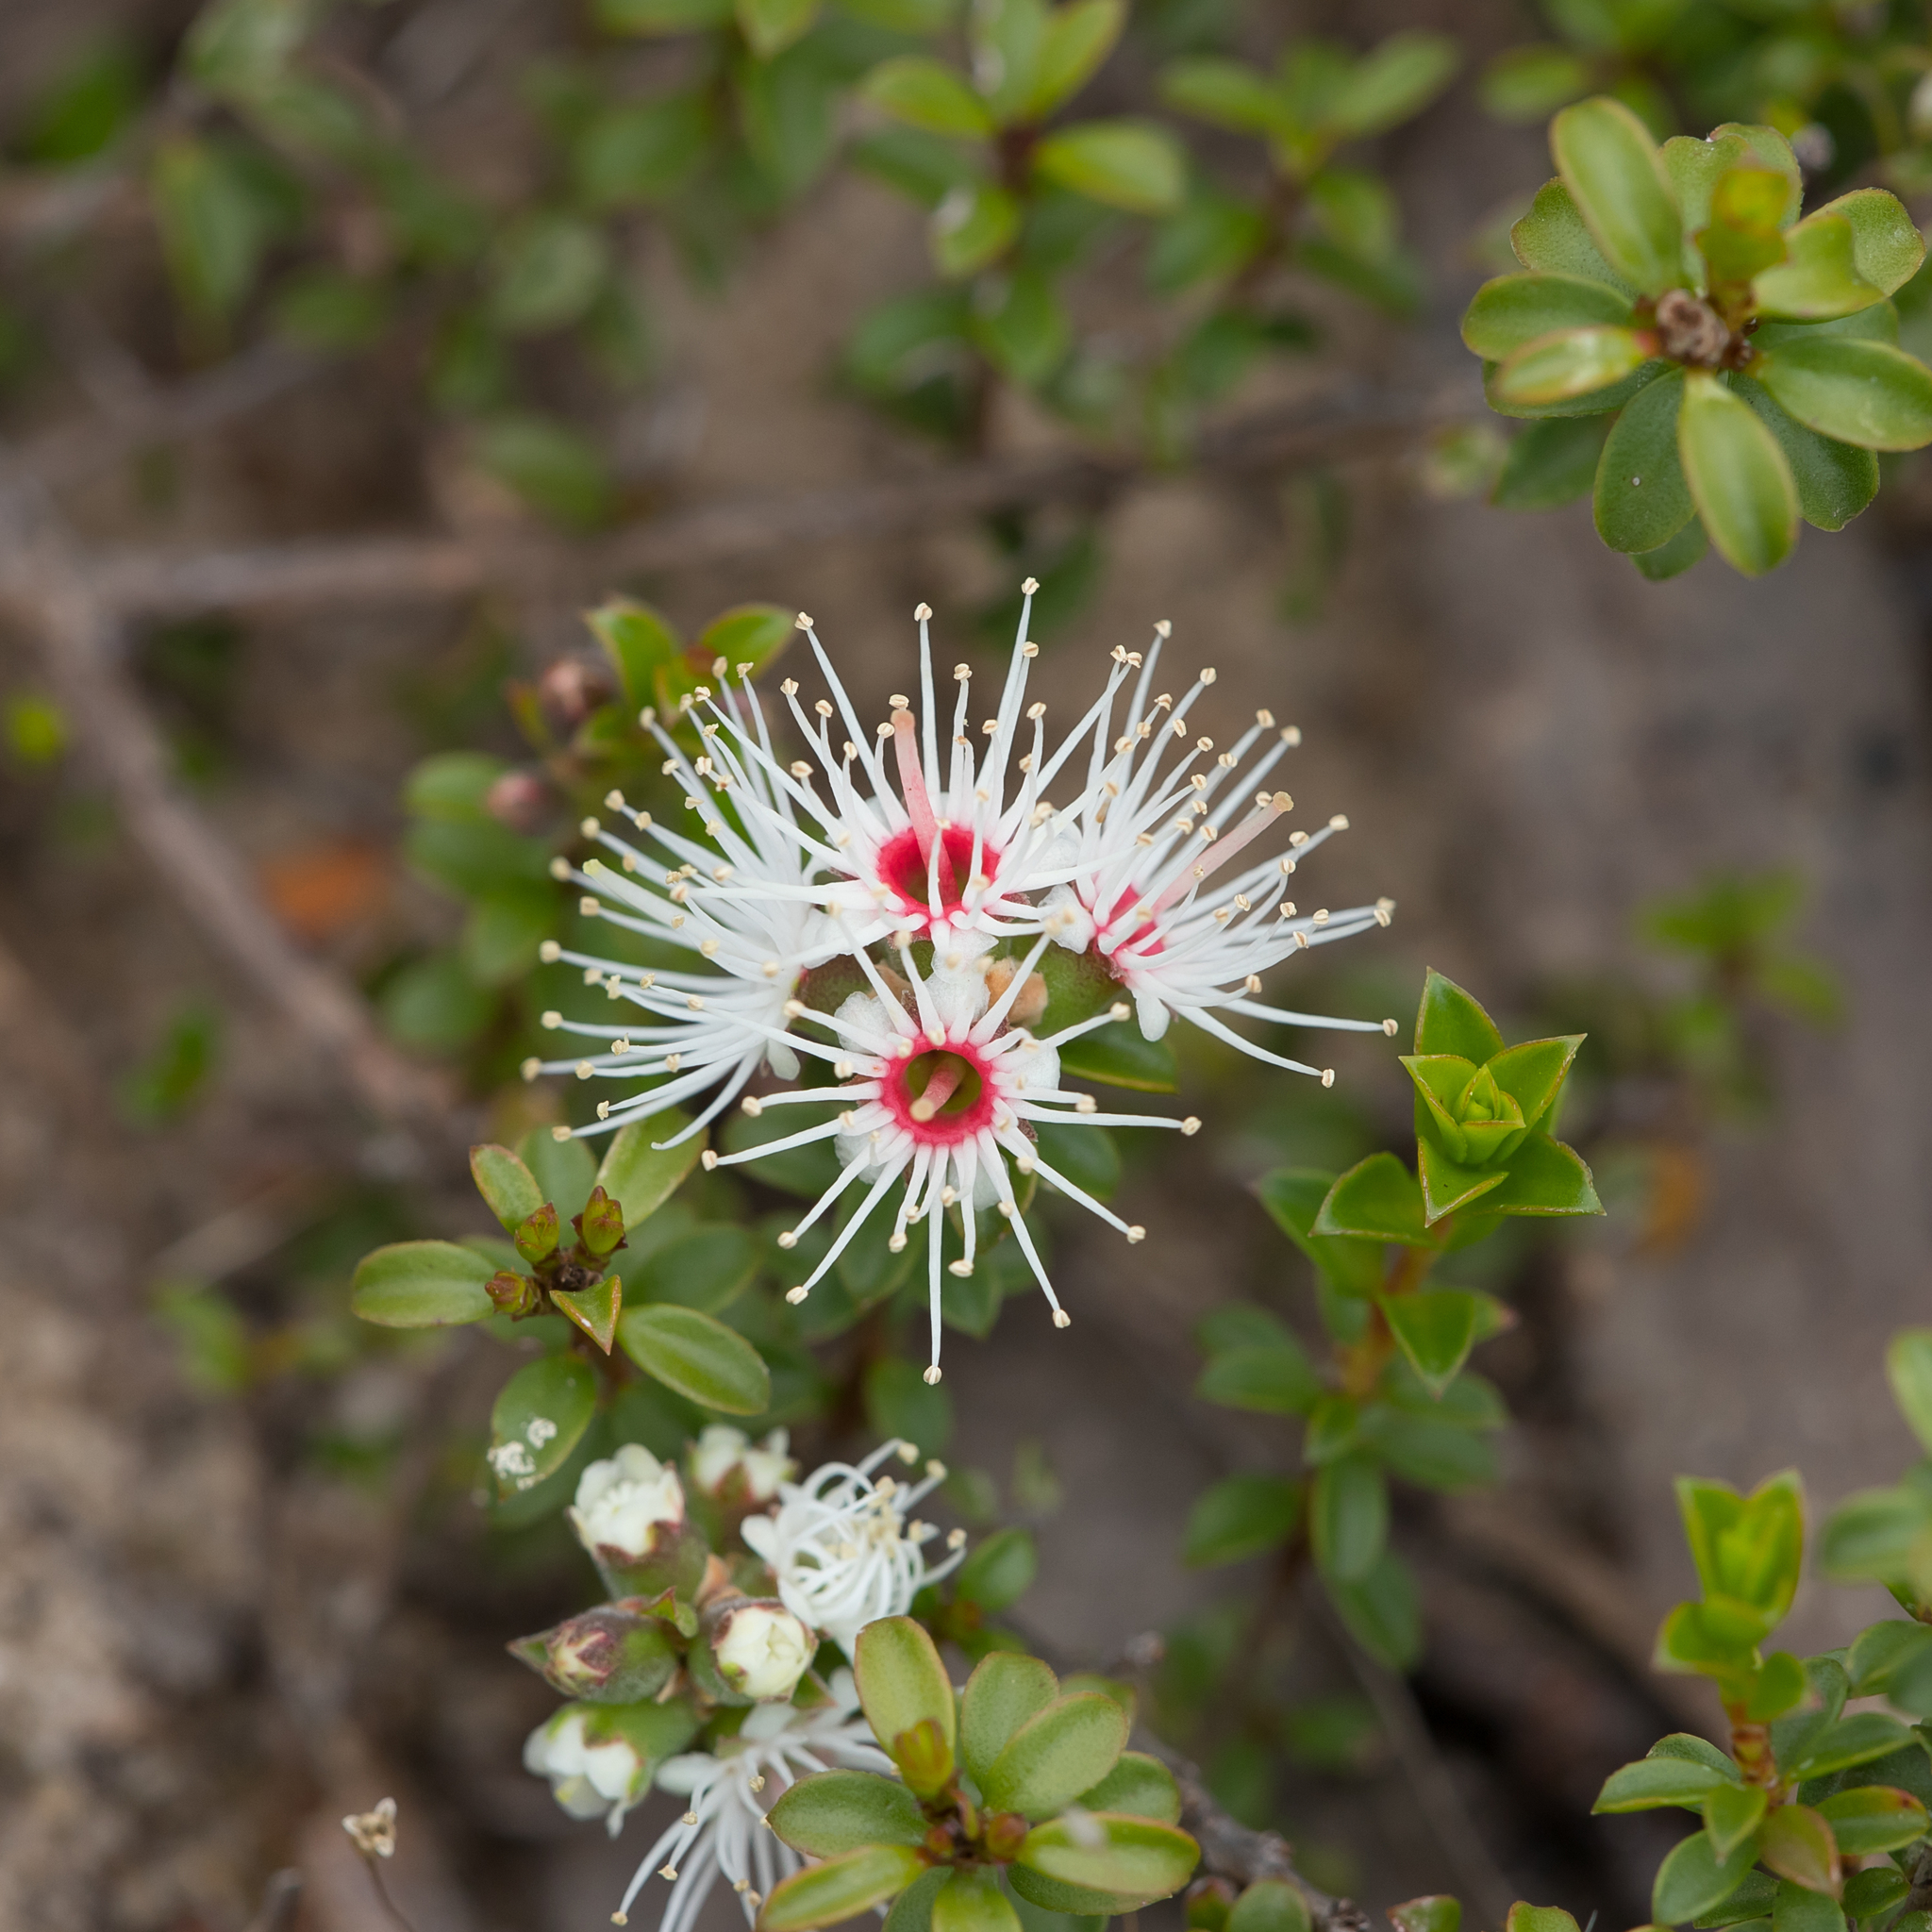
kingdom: Plantae
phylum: Tracheophyta
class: Magnoliopsida
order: Myrtales
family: Myrtaceae
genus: Kunzea
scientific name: Kunzea pomifera
